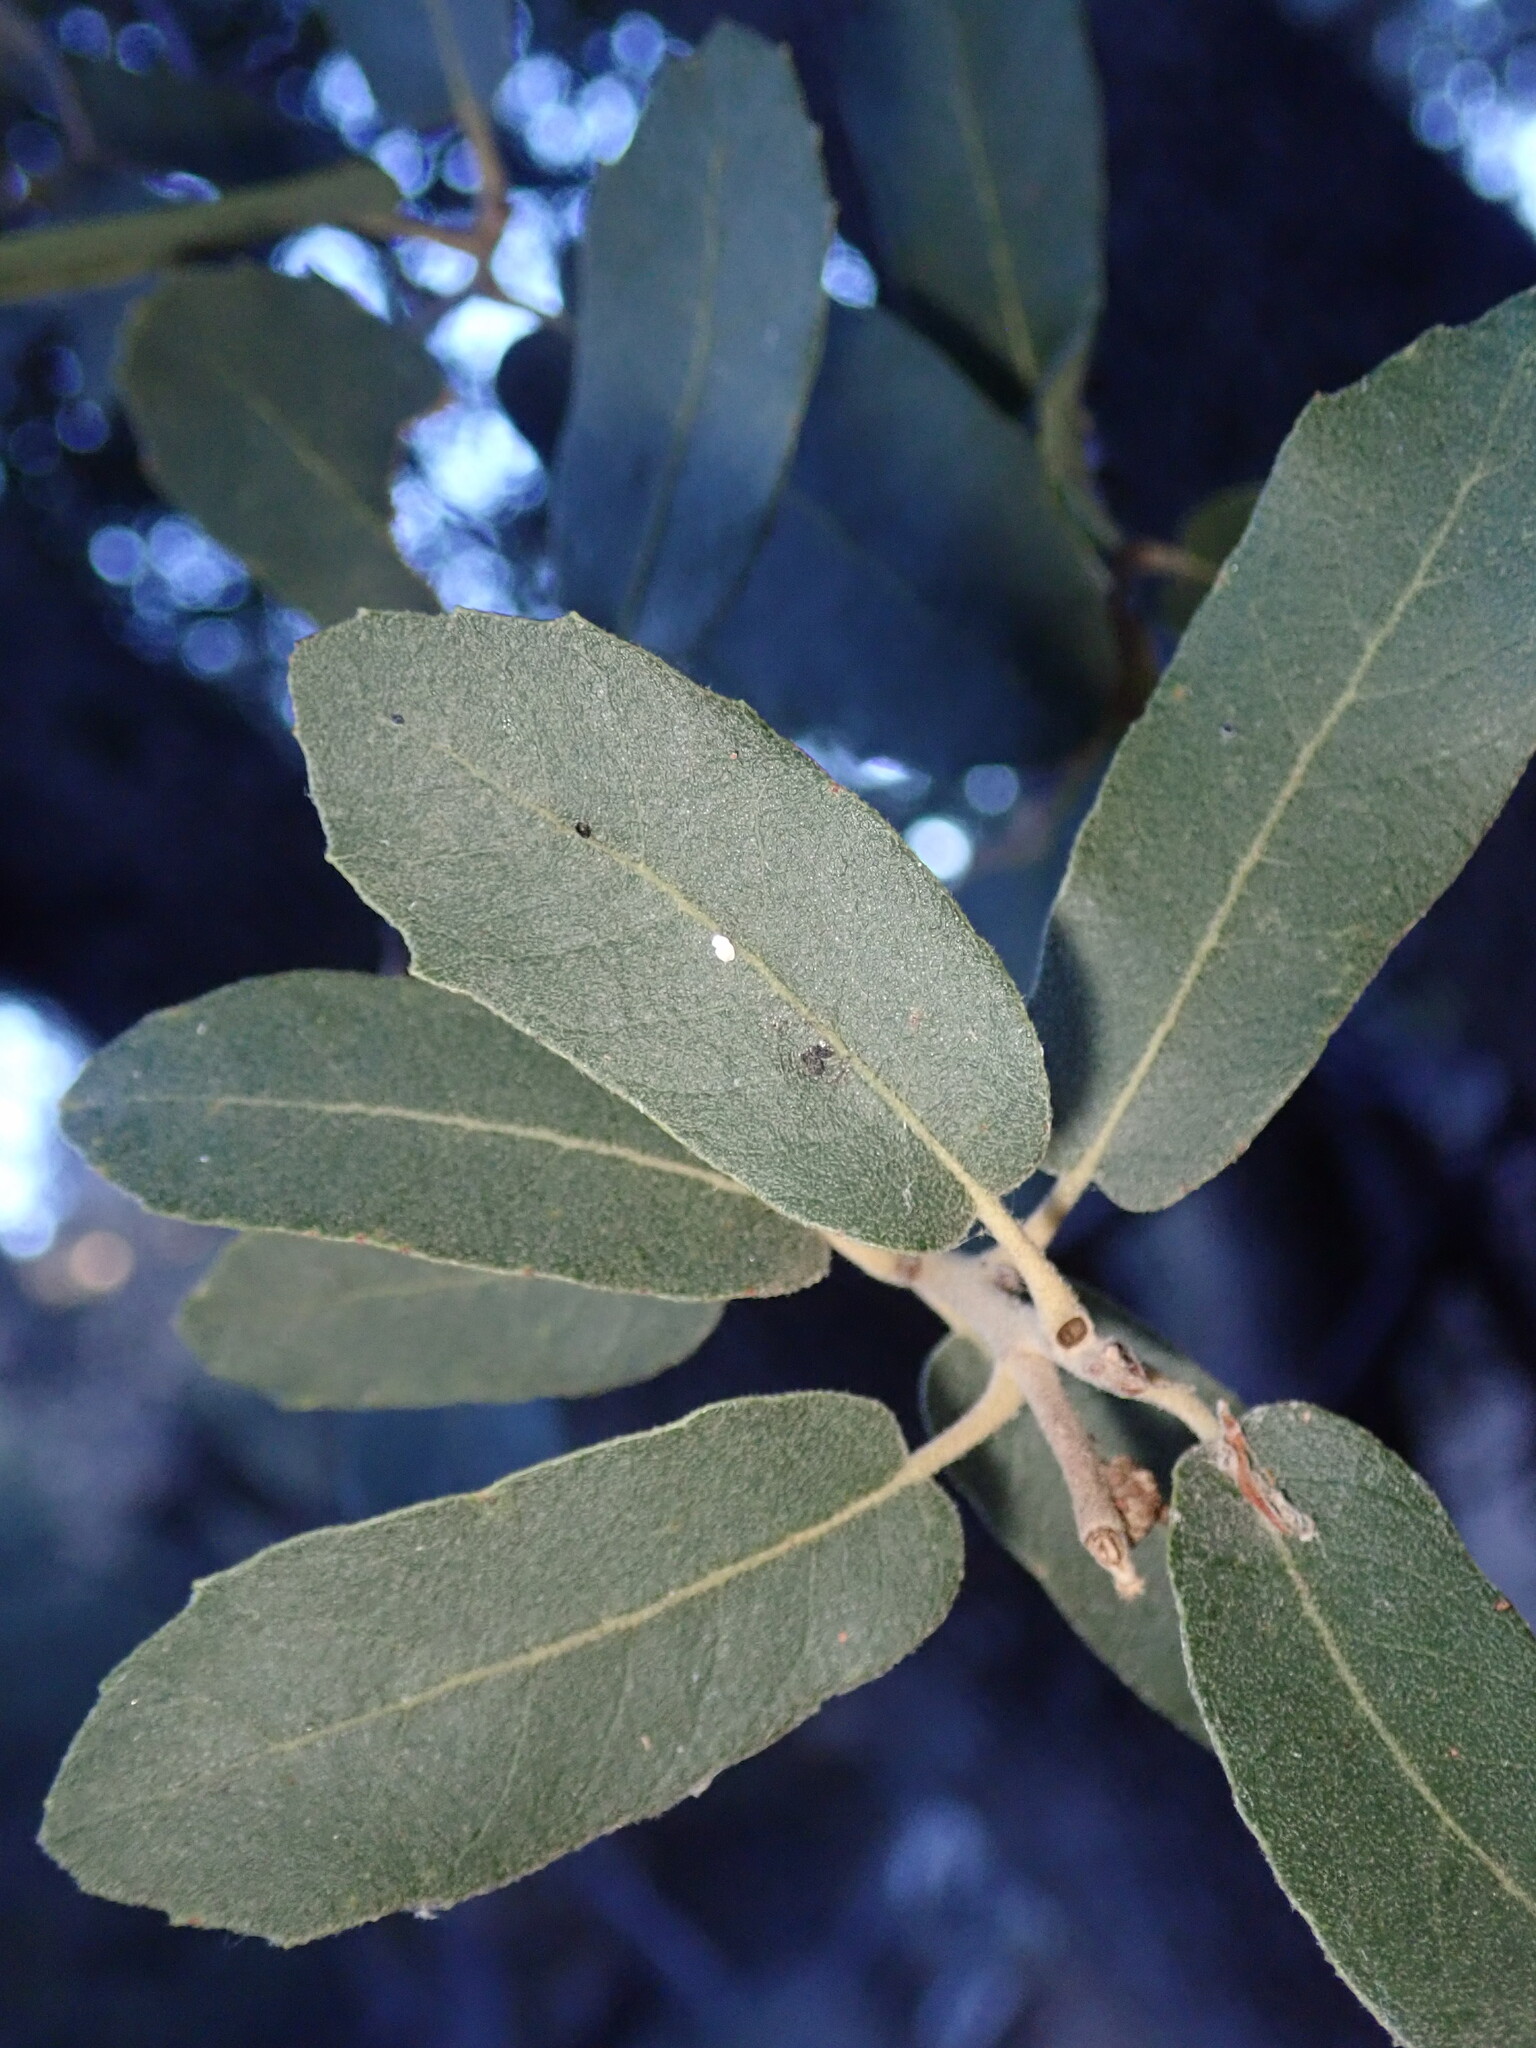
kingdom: Plantae
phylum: Tracheophyta
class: Magnoliopsida
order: Fagales
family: Fagaceae
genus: Quercus
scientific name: Quercus arizonica
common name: Arizona white oak
